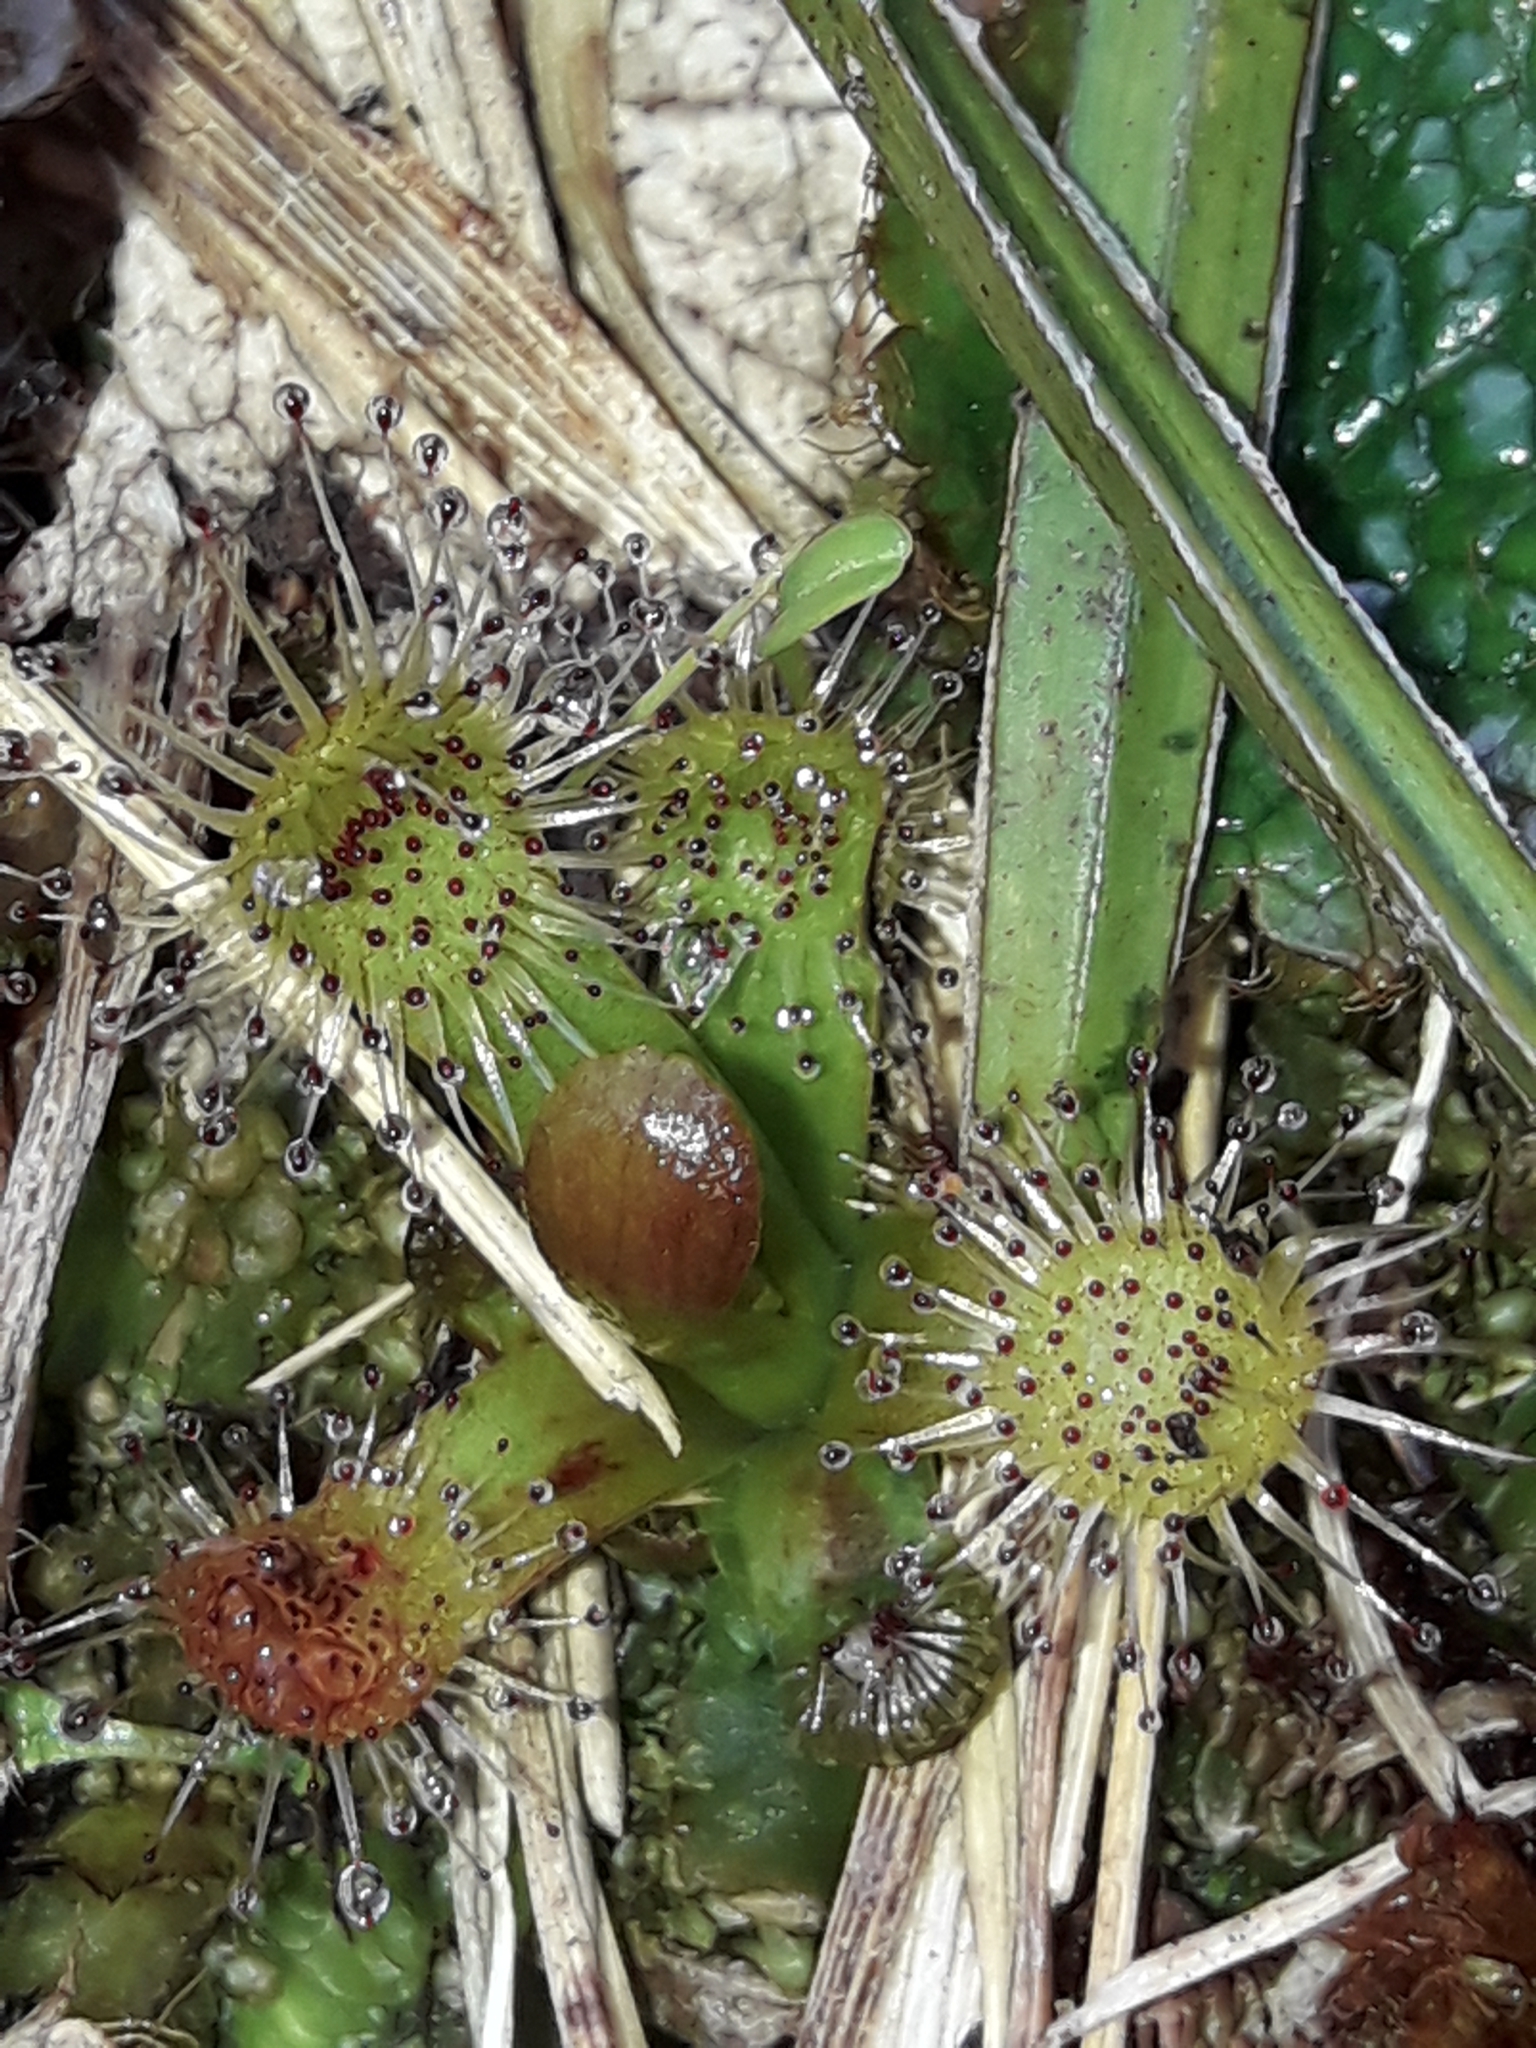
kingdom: Plantae
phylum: Tracheophyta
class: Magnoliopsida
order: Caryophyllales
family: Droseraceae
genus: Drosera
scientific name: Drosera stenopetala
